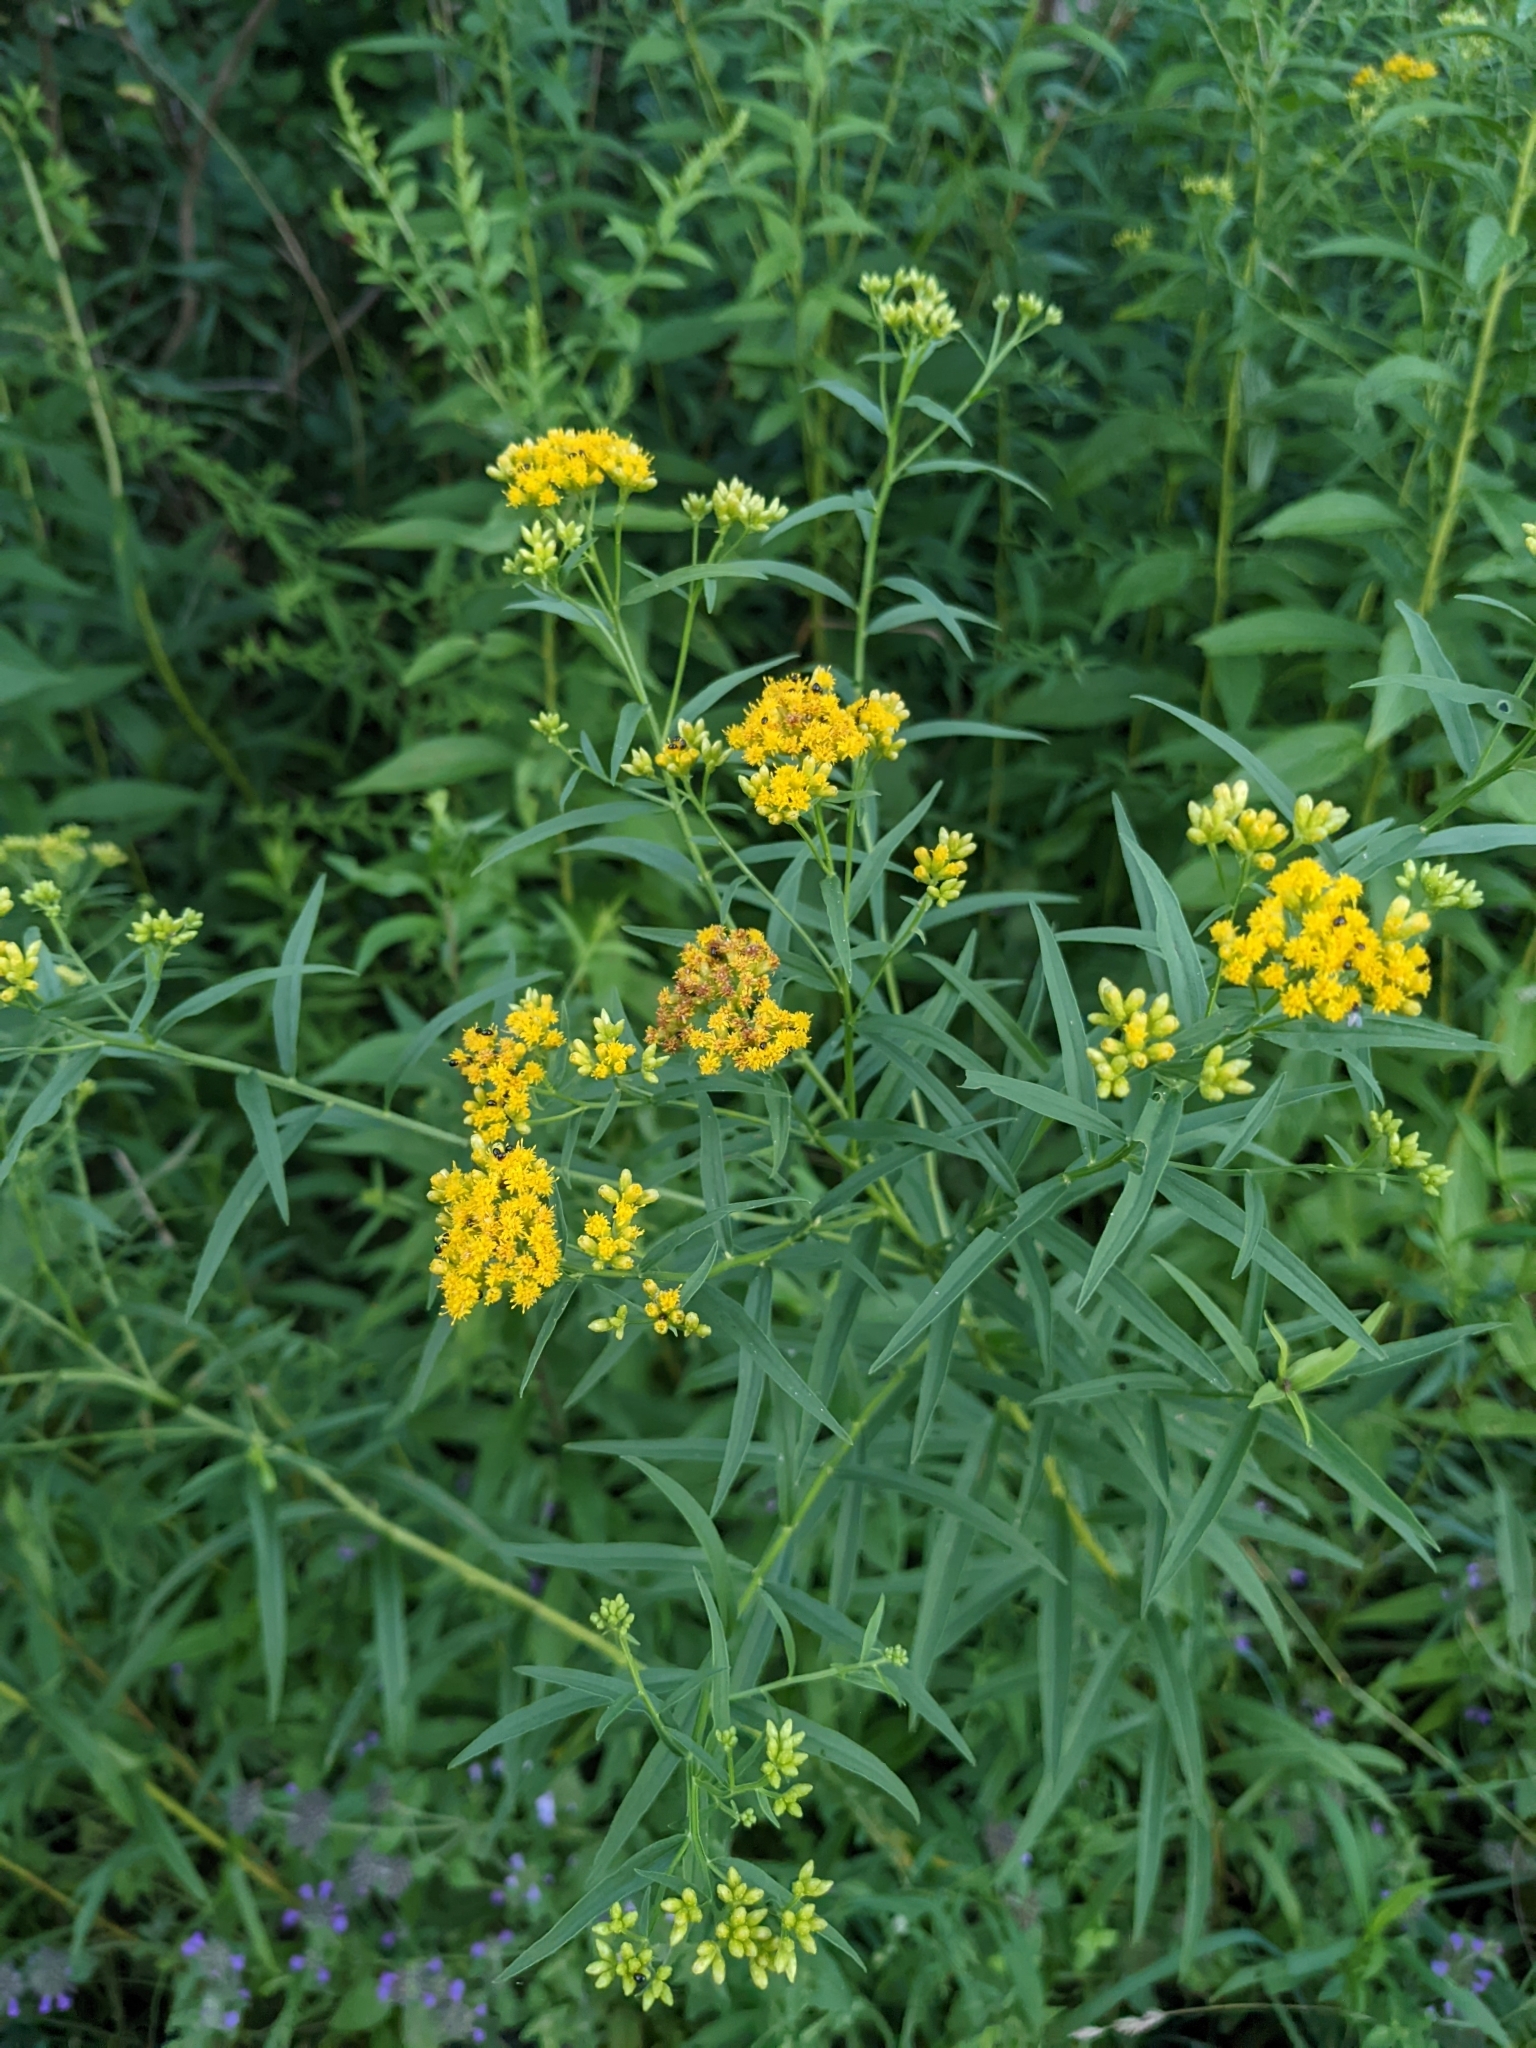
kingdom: Plantae
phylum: Tracheophyta
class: Magnoliopsida
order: Asterales
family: Asteraceae
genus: Euthamia
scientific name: Euthamia graminifolia
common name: Common goldentop
